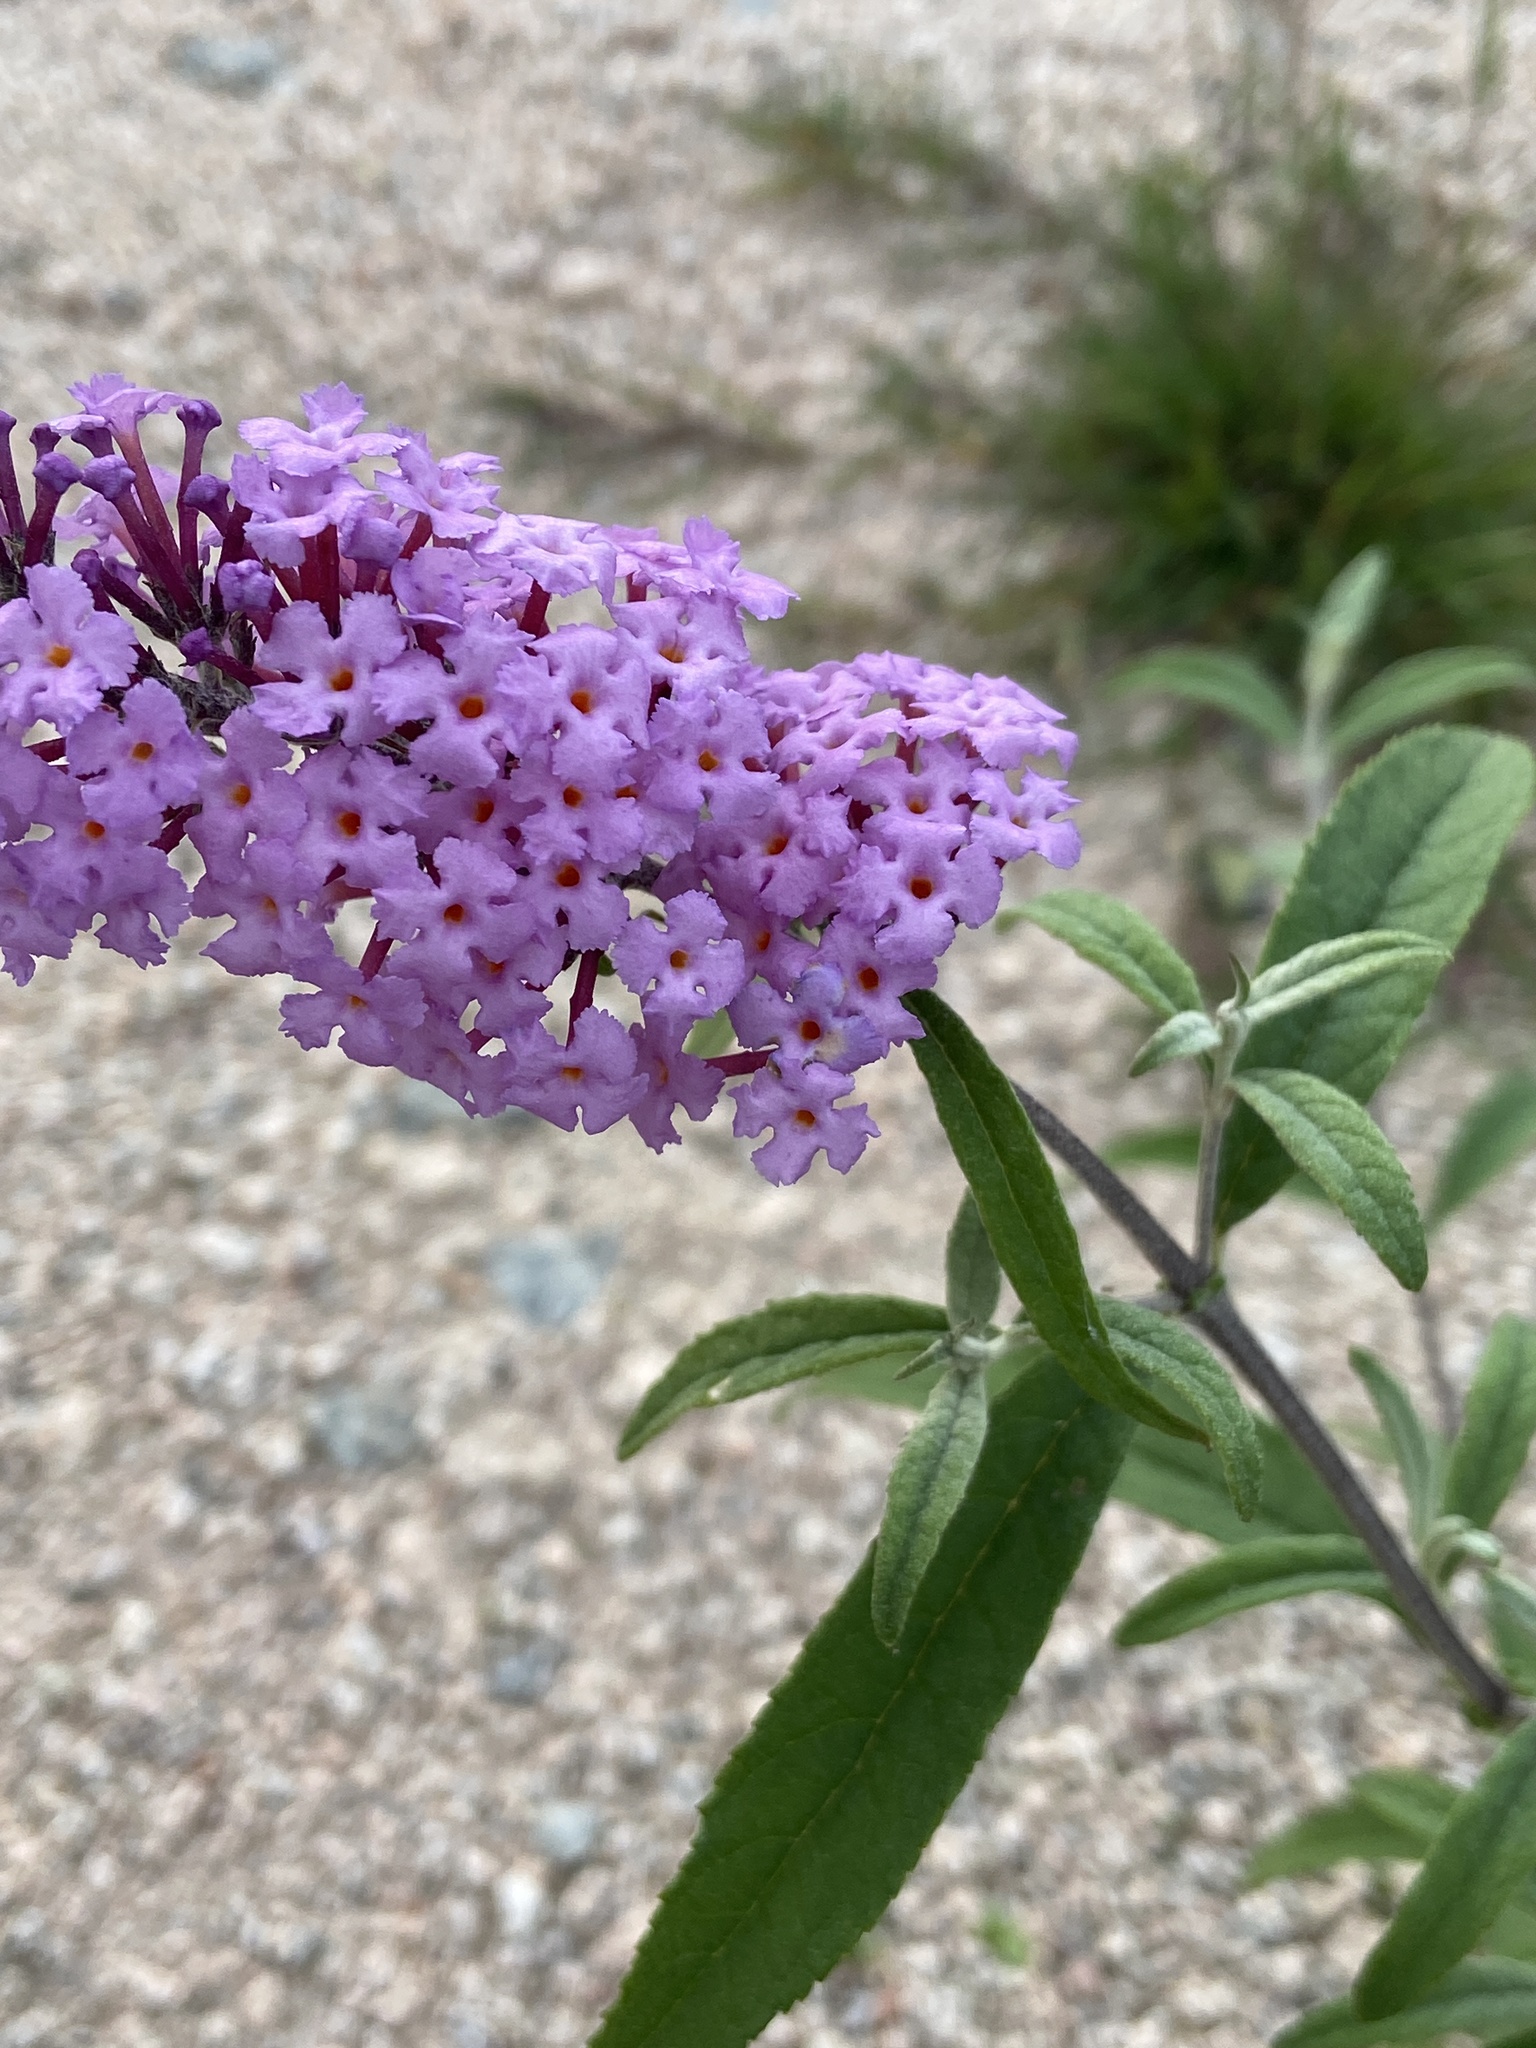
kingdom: Plantae
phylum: Tracheophyta
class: Magnoliopsida
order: Lamiales
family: Scrophulariaceae
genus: Buddleja
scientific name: Buddleja davidii
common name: Butterfly-bush
